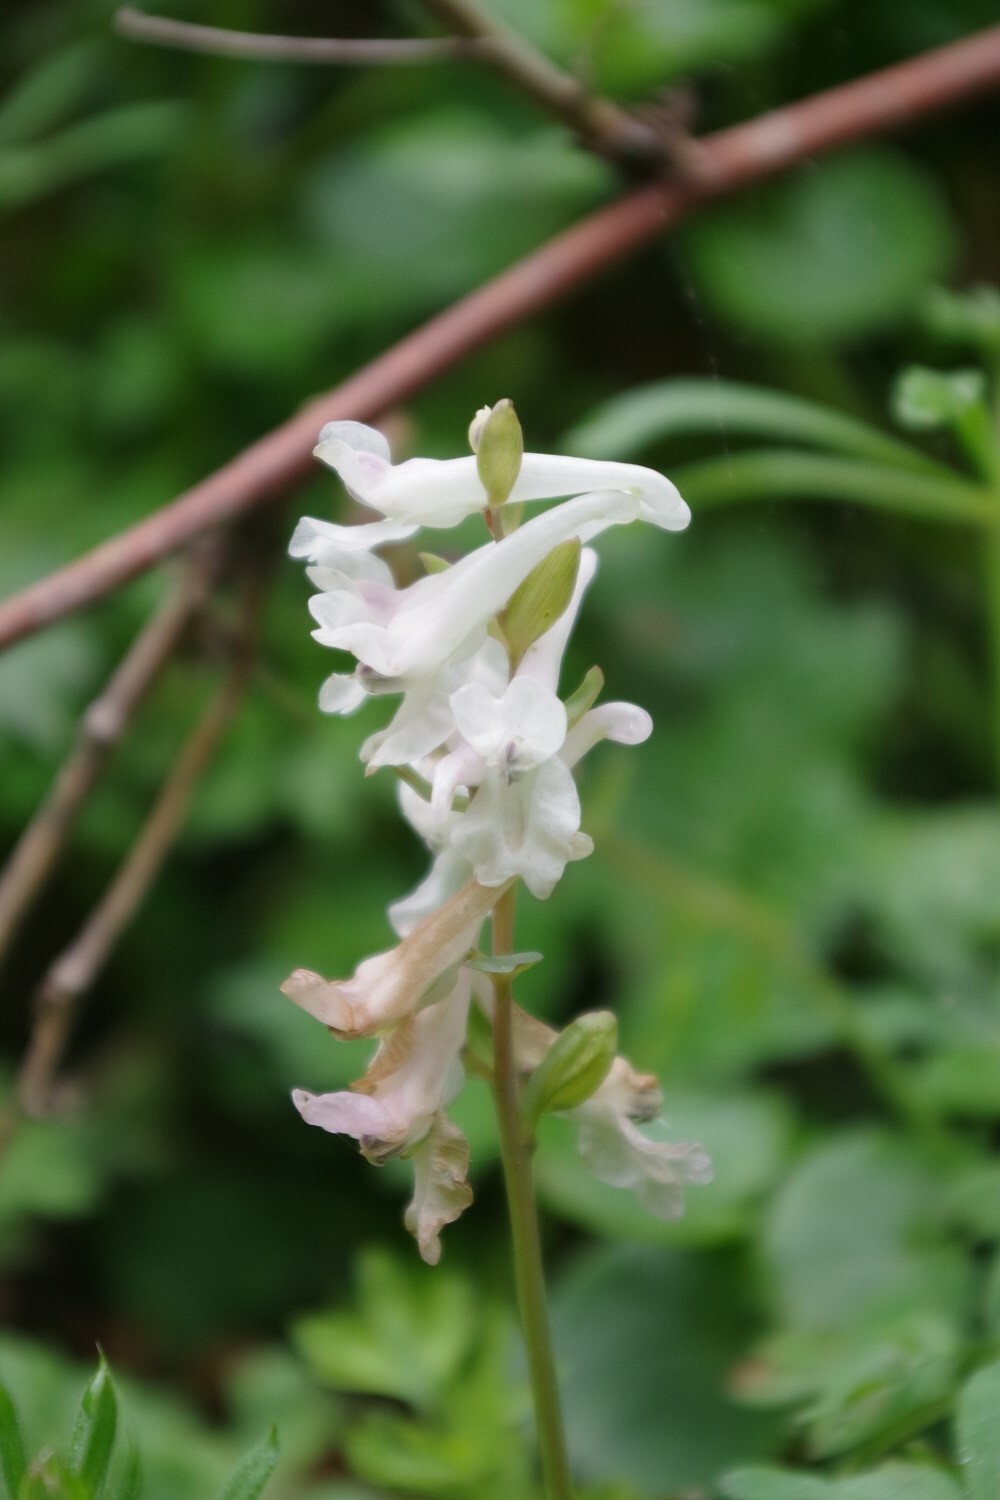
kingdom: Plantae
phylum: Tracheophyta
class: Magnoliopsida
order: Ranunculales
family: Papaveraceae
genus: Corydalis
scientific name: Corydalis cava
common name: Hollowroot
